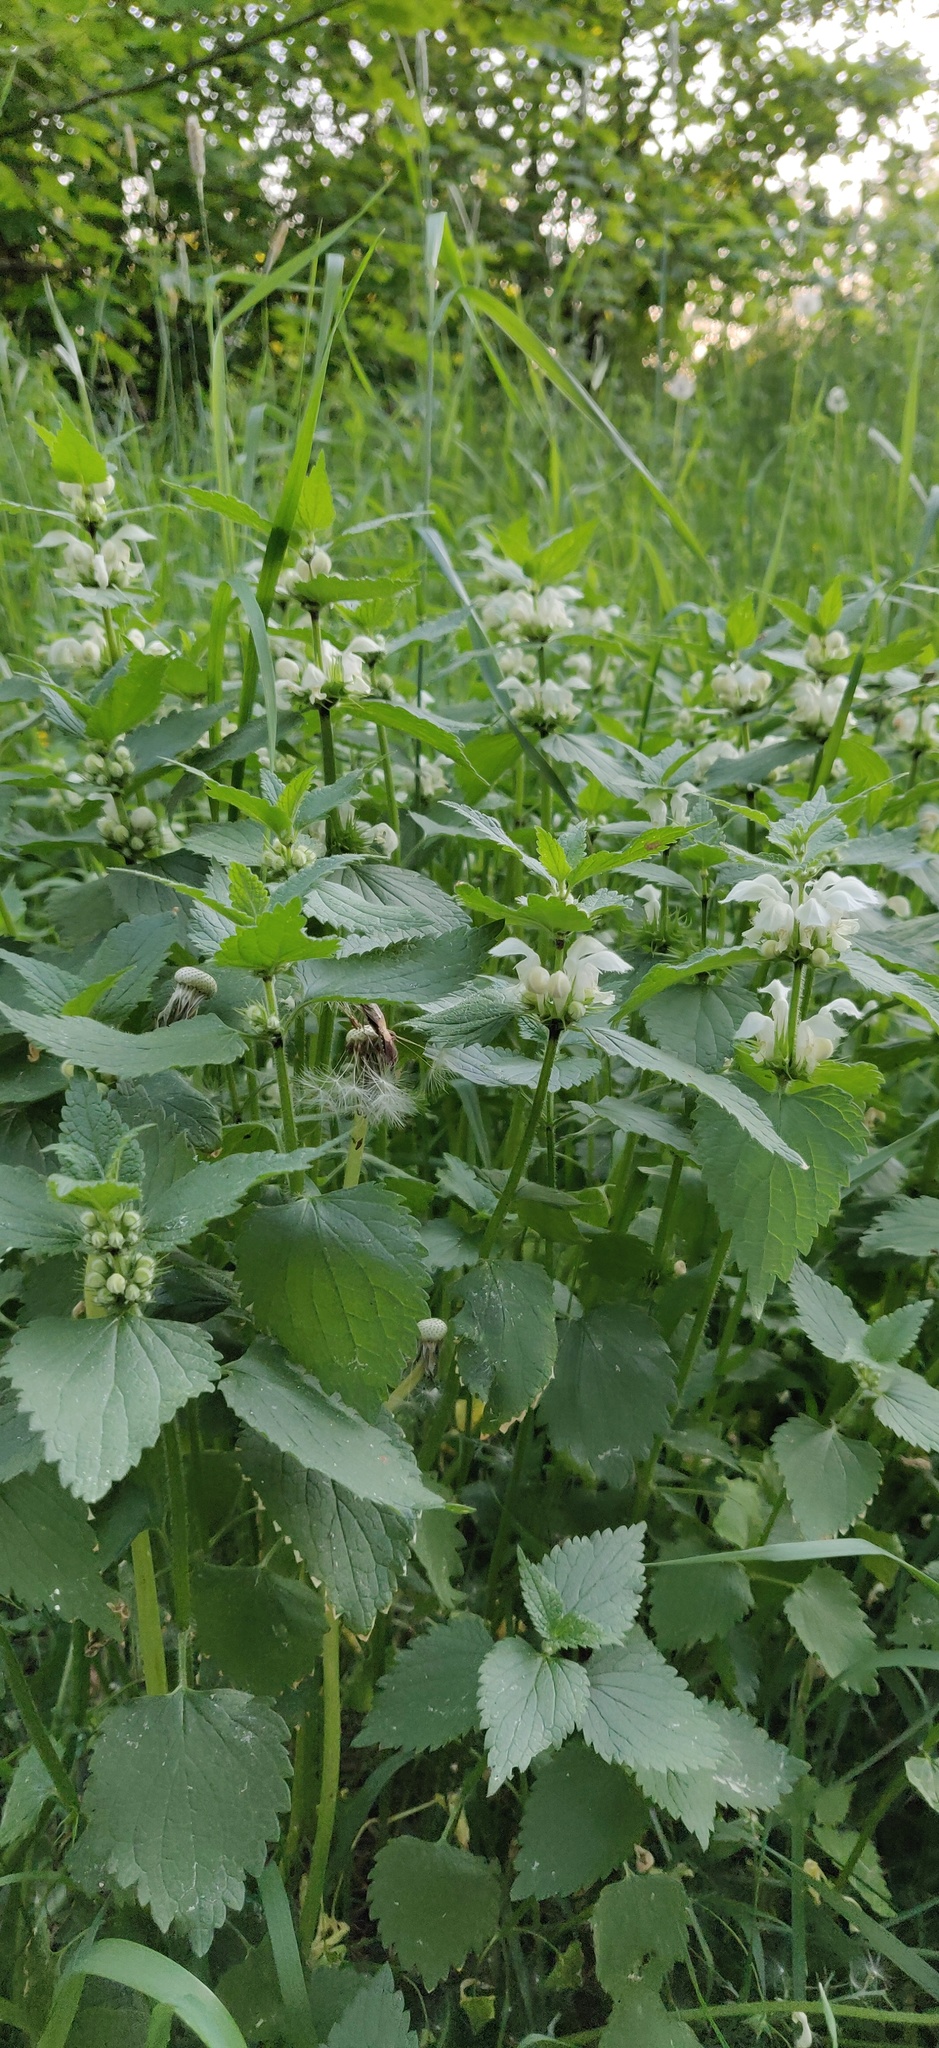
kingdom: Plantae
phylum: Tracheophyta
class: Magnoliopsida
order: Lamiales
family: Lamiaceae
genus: Lamium
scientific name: Lamium album
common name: White dead-nettle
